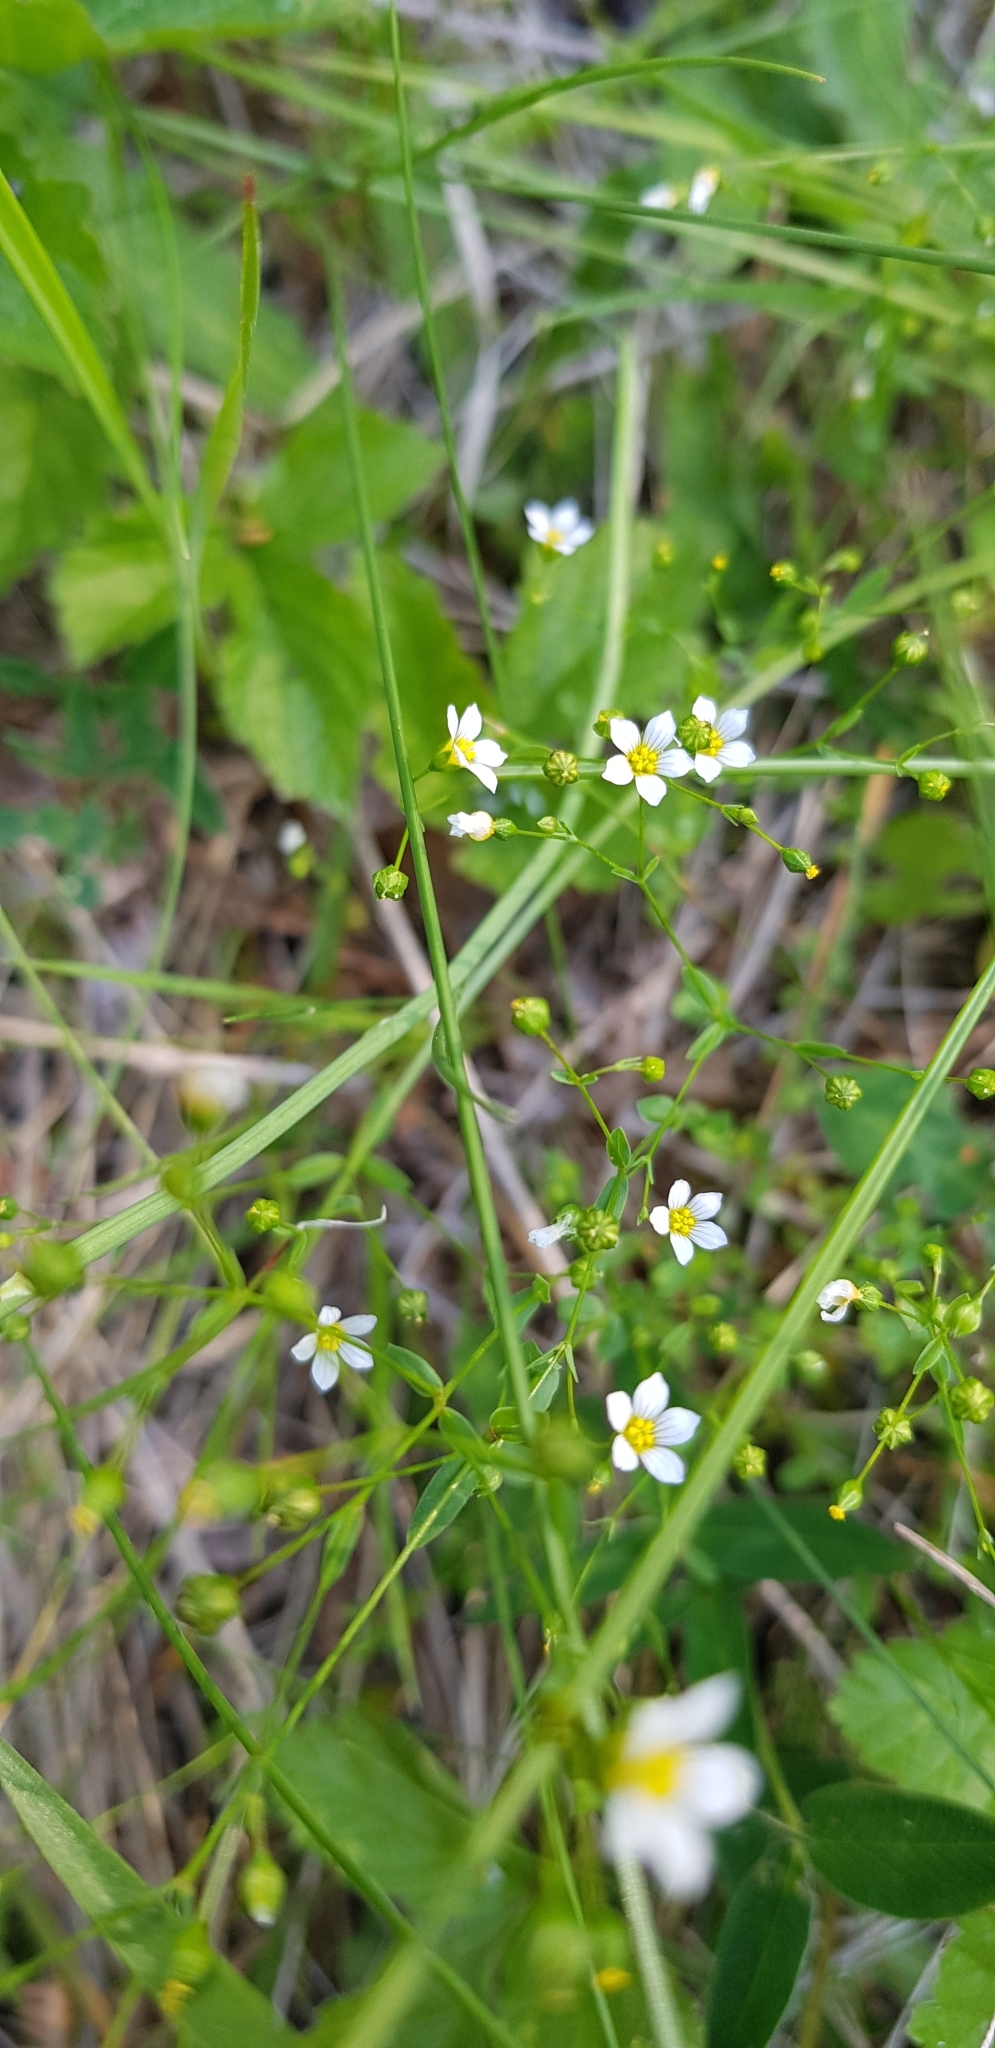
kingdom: Plantae
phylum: Tracheophyta
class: Magnoliopsida
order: Malpighiales
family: Linaceae
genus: Linum
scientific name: Linum catharticum
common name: Fairy flax
